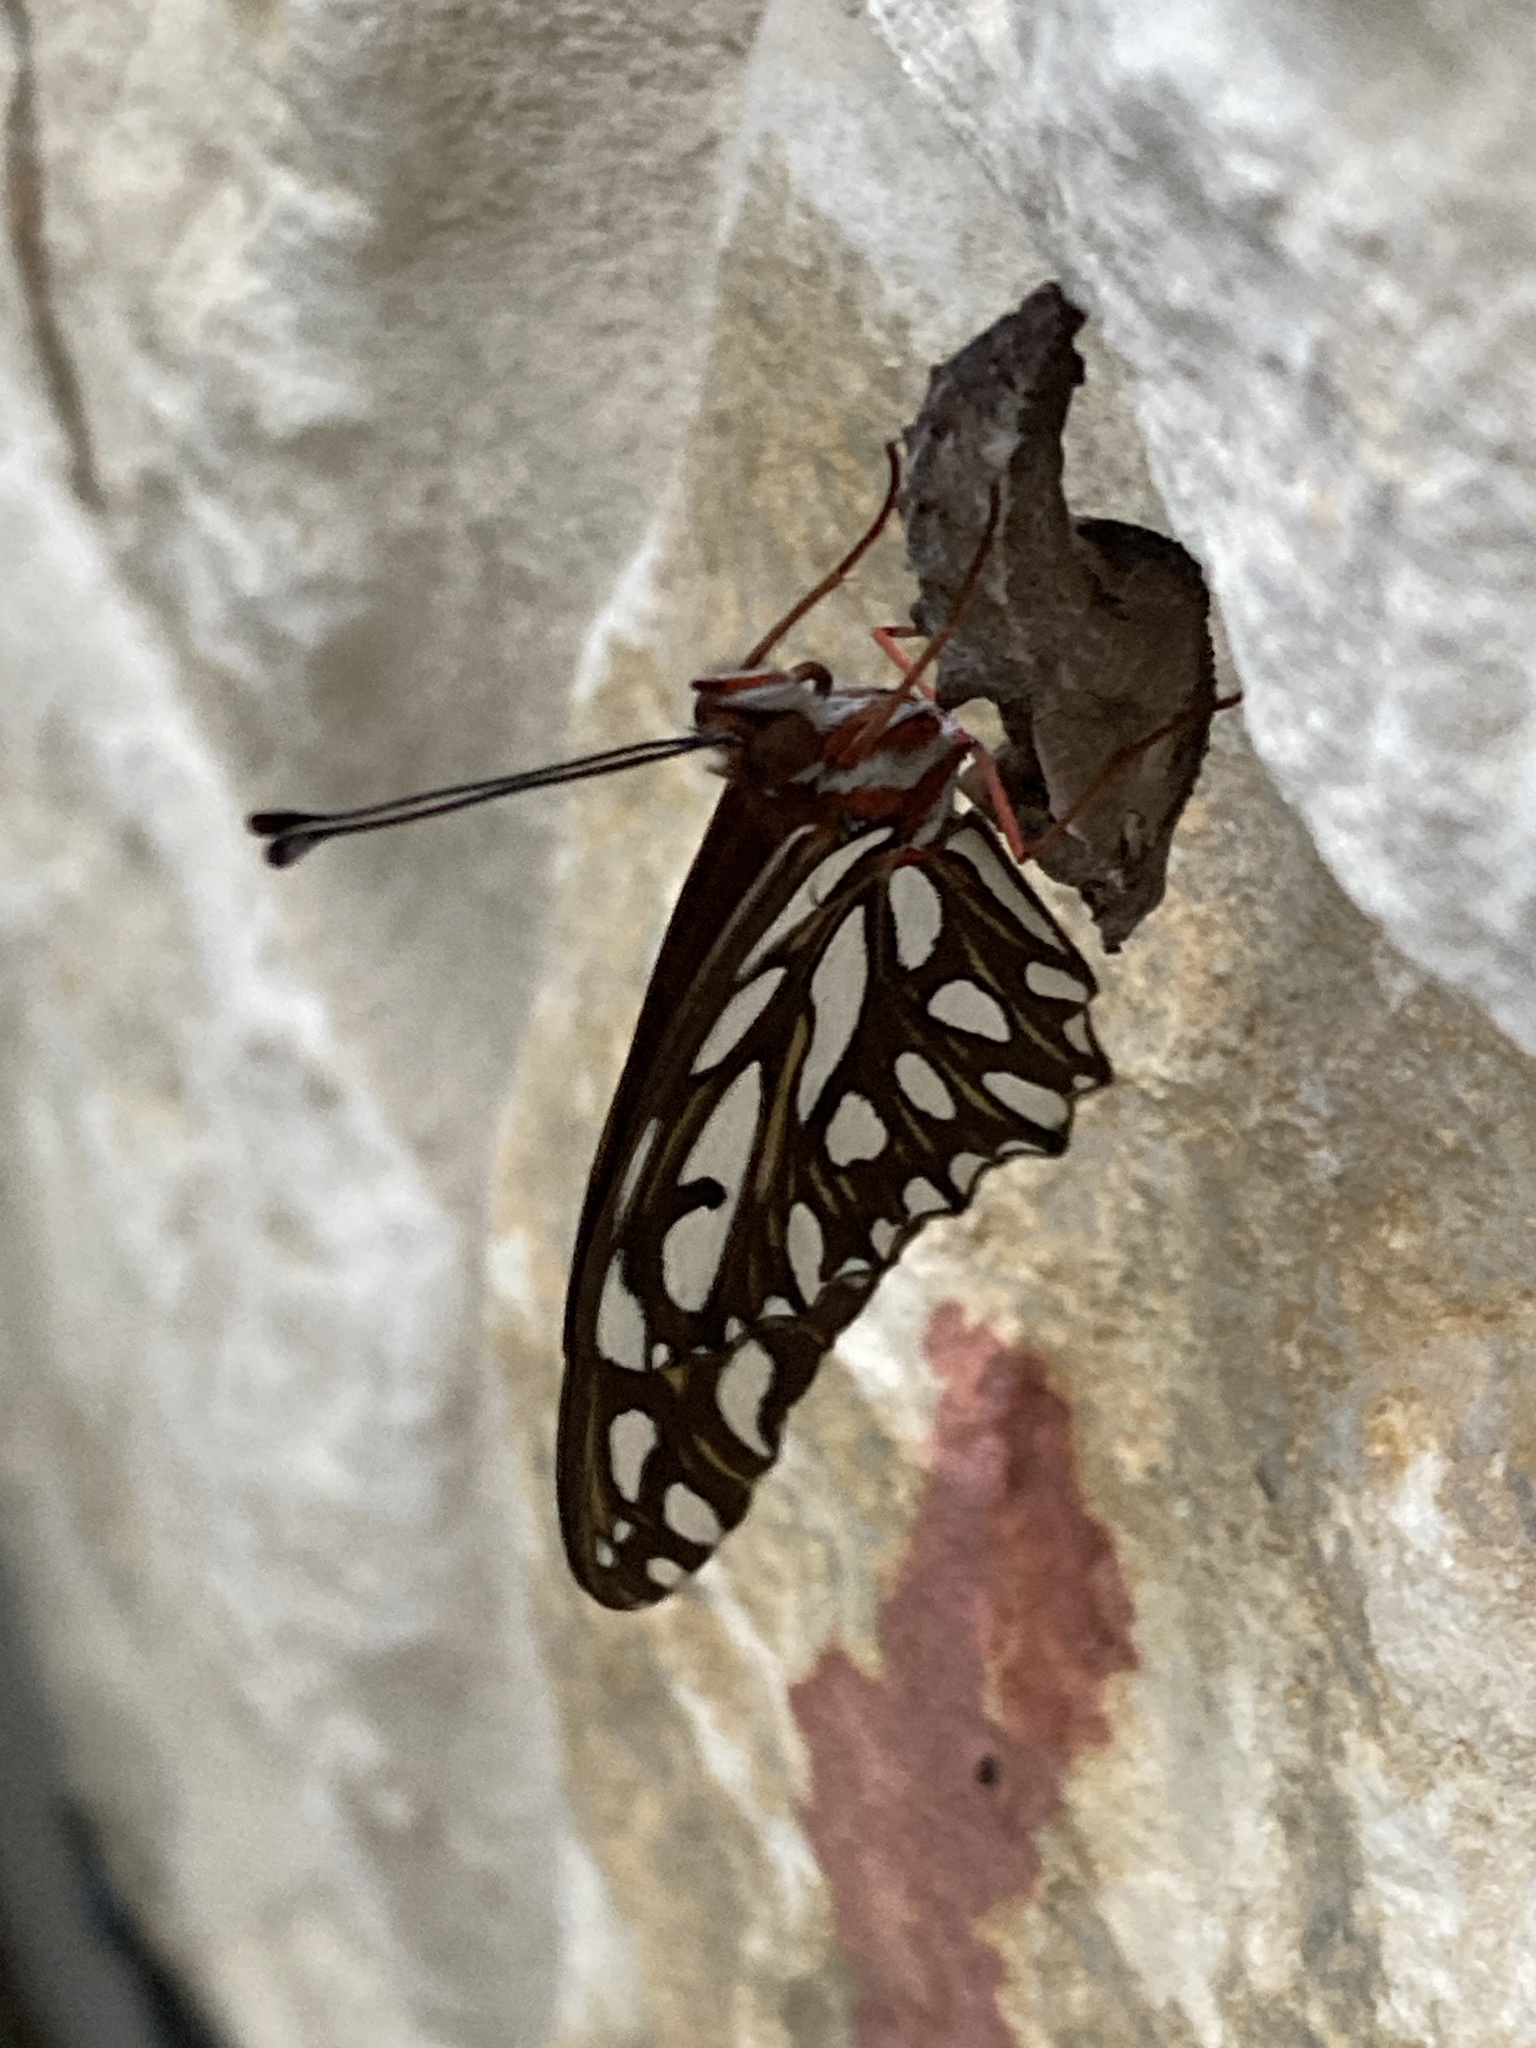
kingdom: Animalia
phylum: Arthropoda
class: Insecta
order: Lepidoptera
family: Nymphalidae
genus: Dione
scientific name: Dione vanillae
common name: Gulf fritillary
